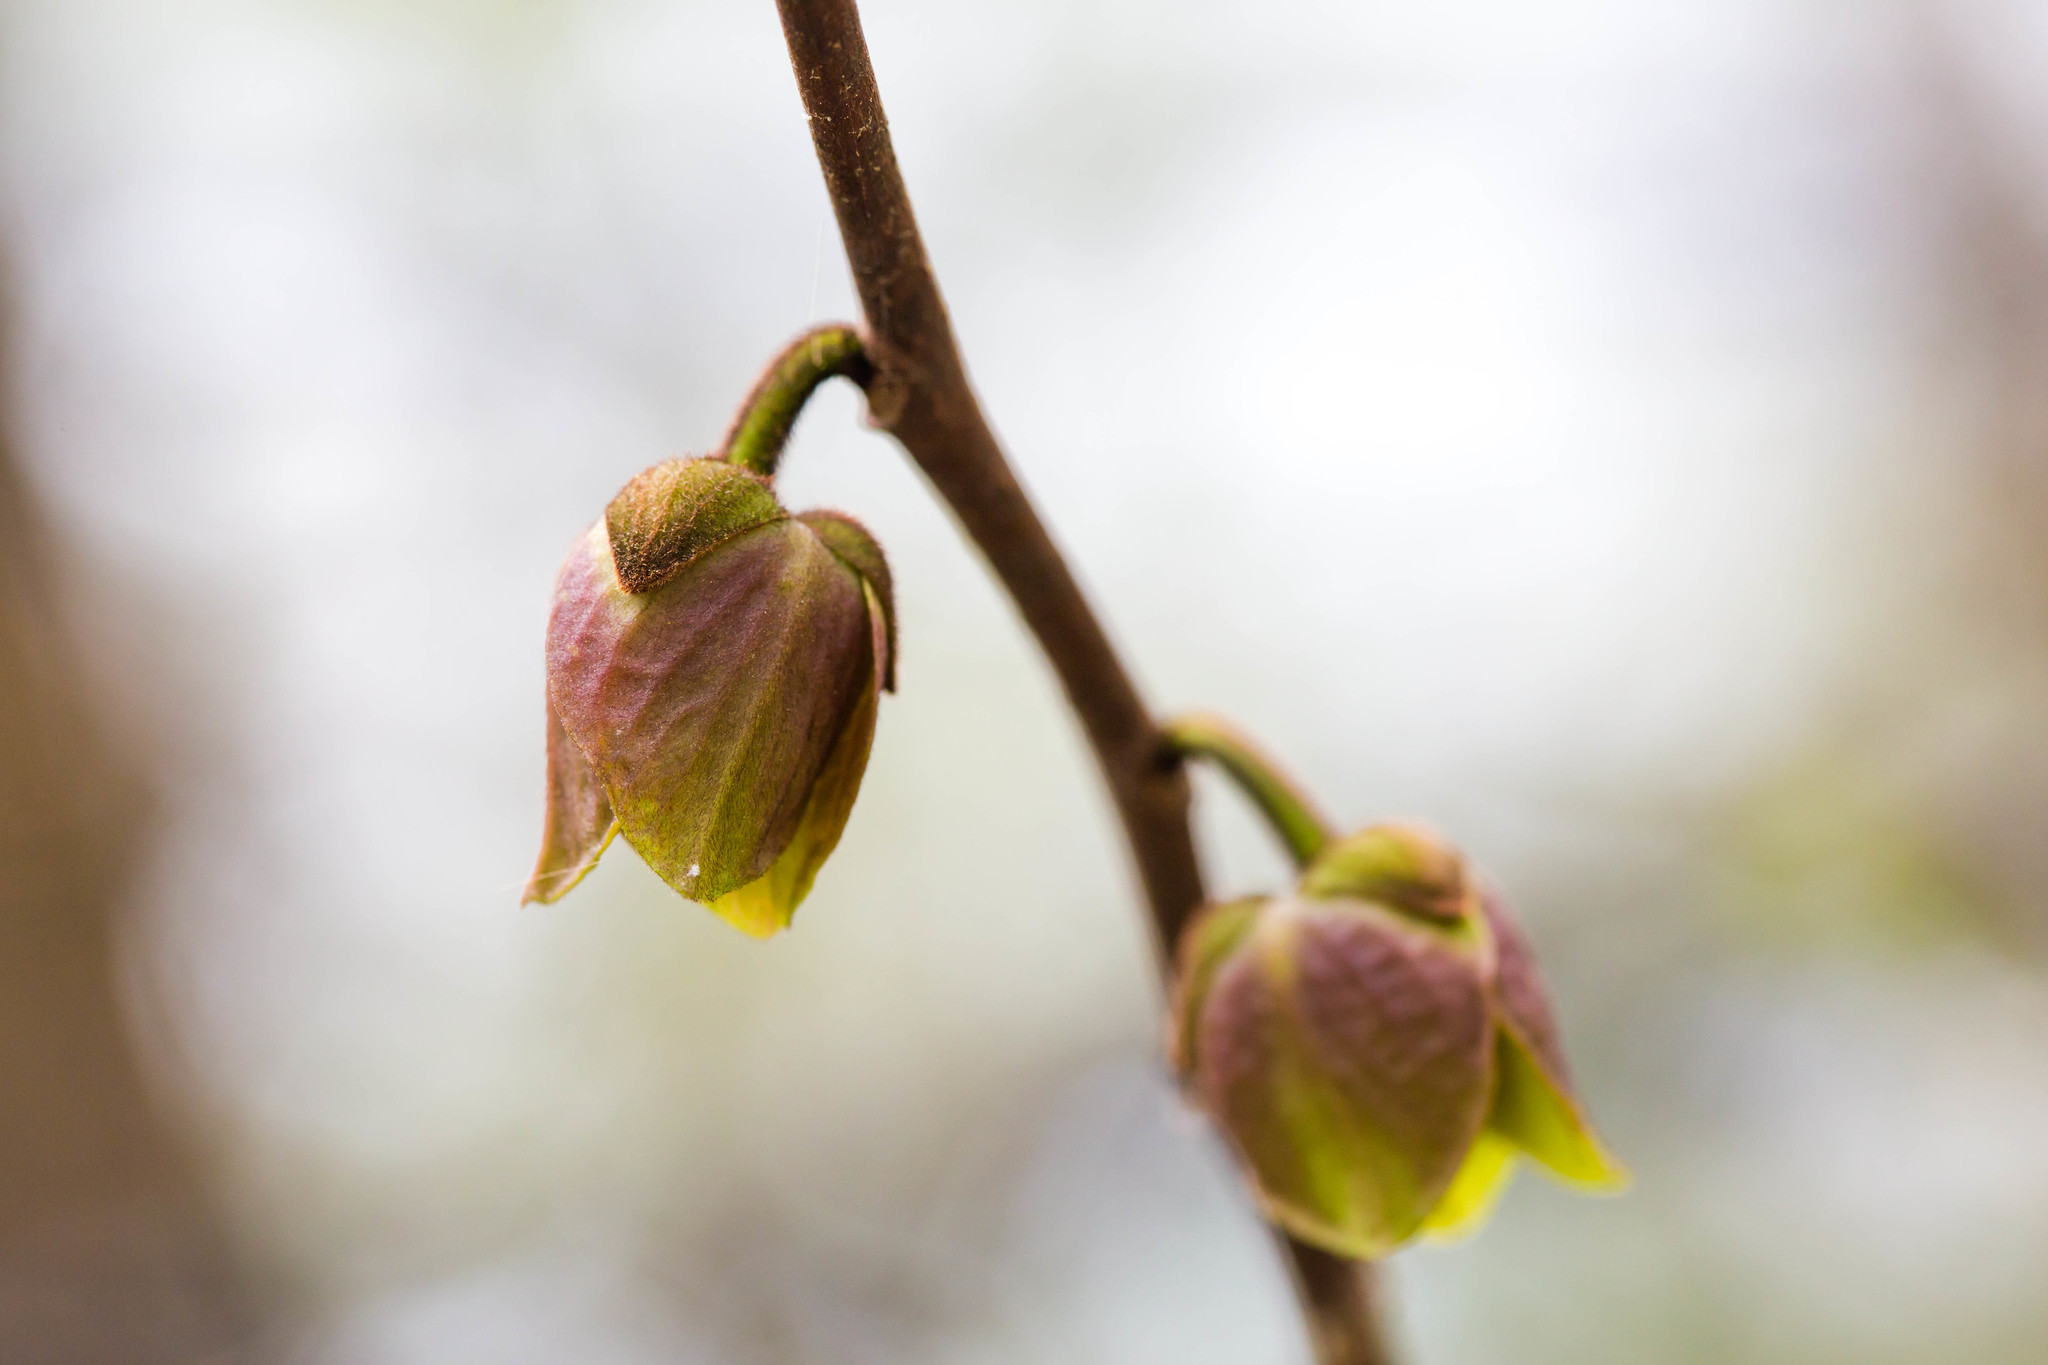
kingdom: Plantae
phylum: Tracheophyta
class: Magnoliopsida
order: Magnoliales
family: Annonaceae
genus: Asimina
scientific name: Asimina triloba
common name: Dog-banana
